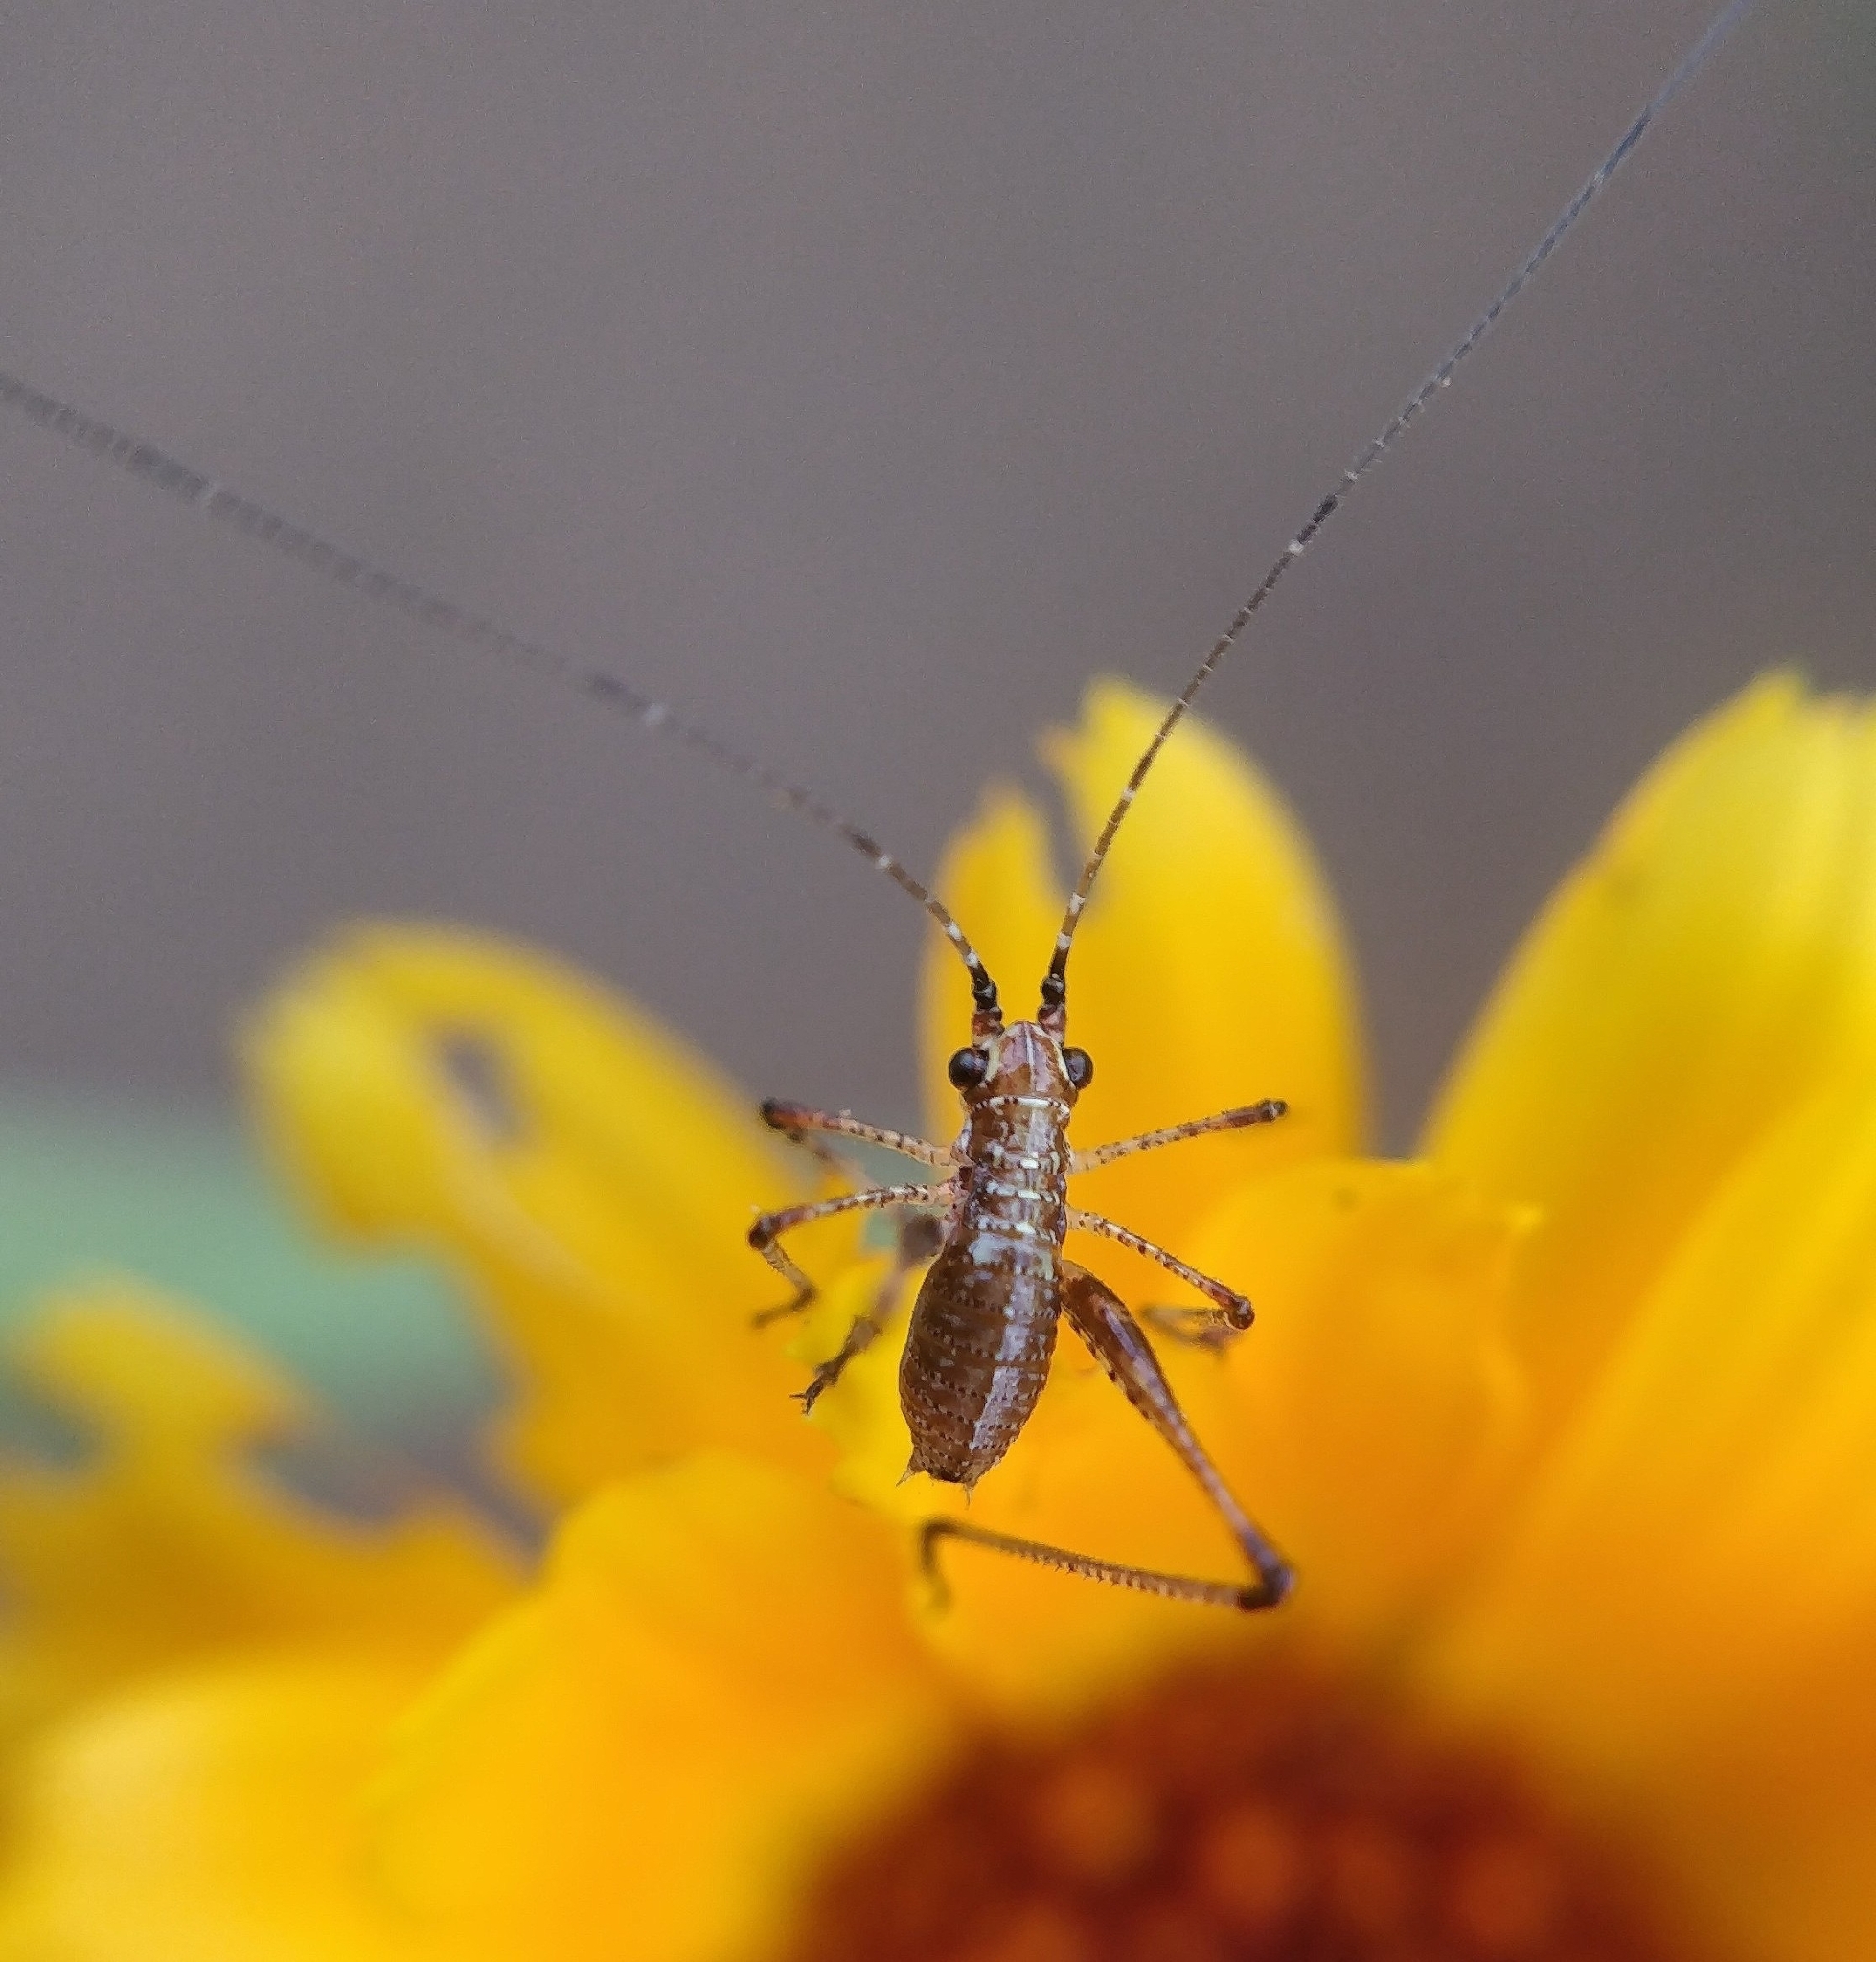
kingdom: Animalia
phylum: Arthropoda
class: Insecta
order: Orthoptera
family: Tettigoniidae
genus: Phaneroptera
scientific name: Phaneroptera sparsa
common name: Sickle-bearing leaf katydid
